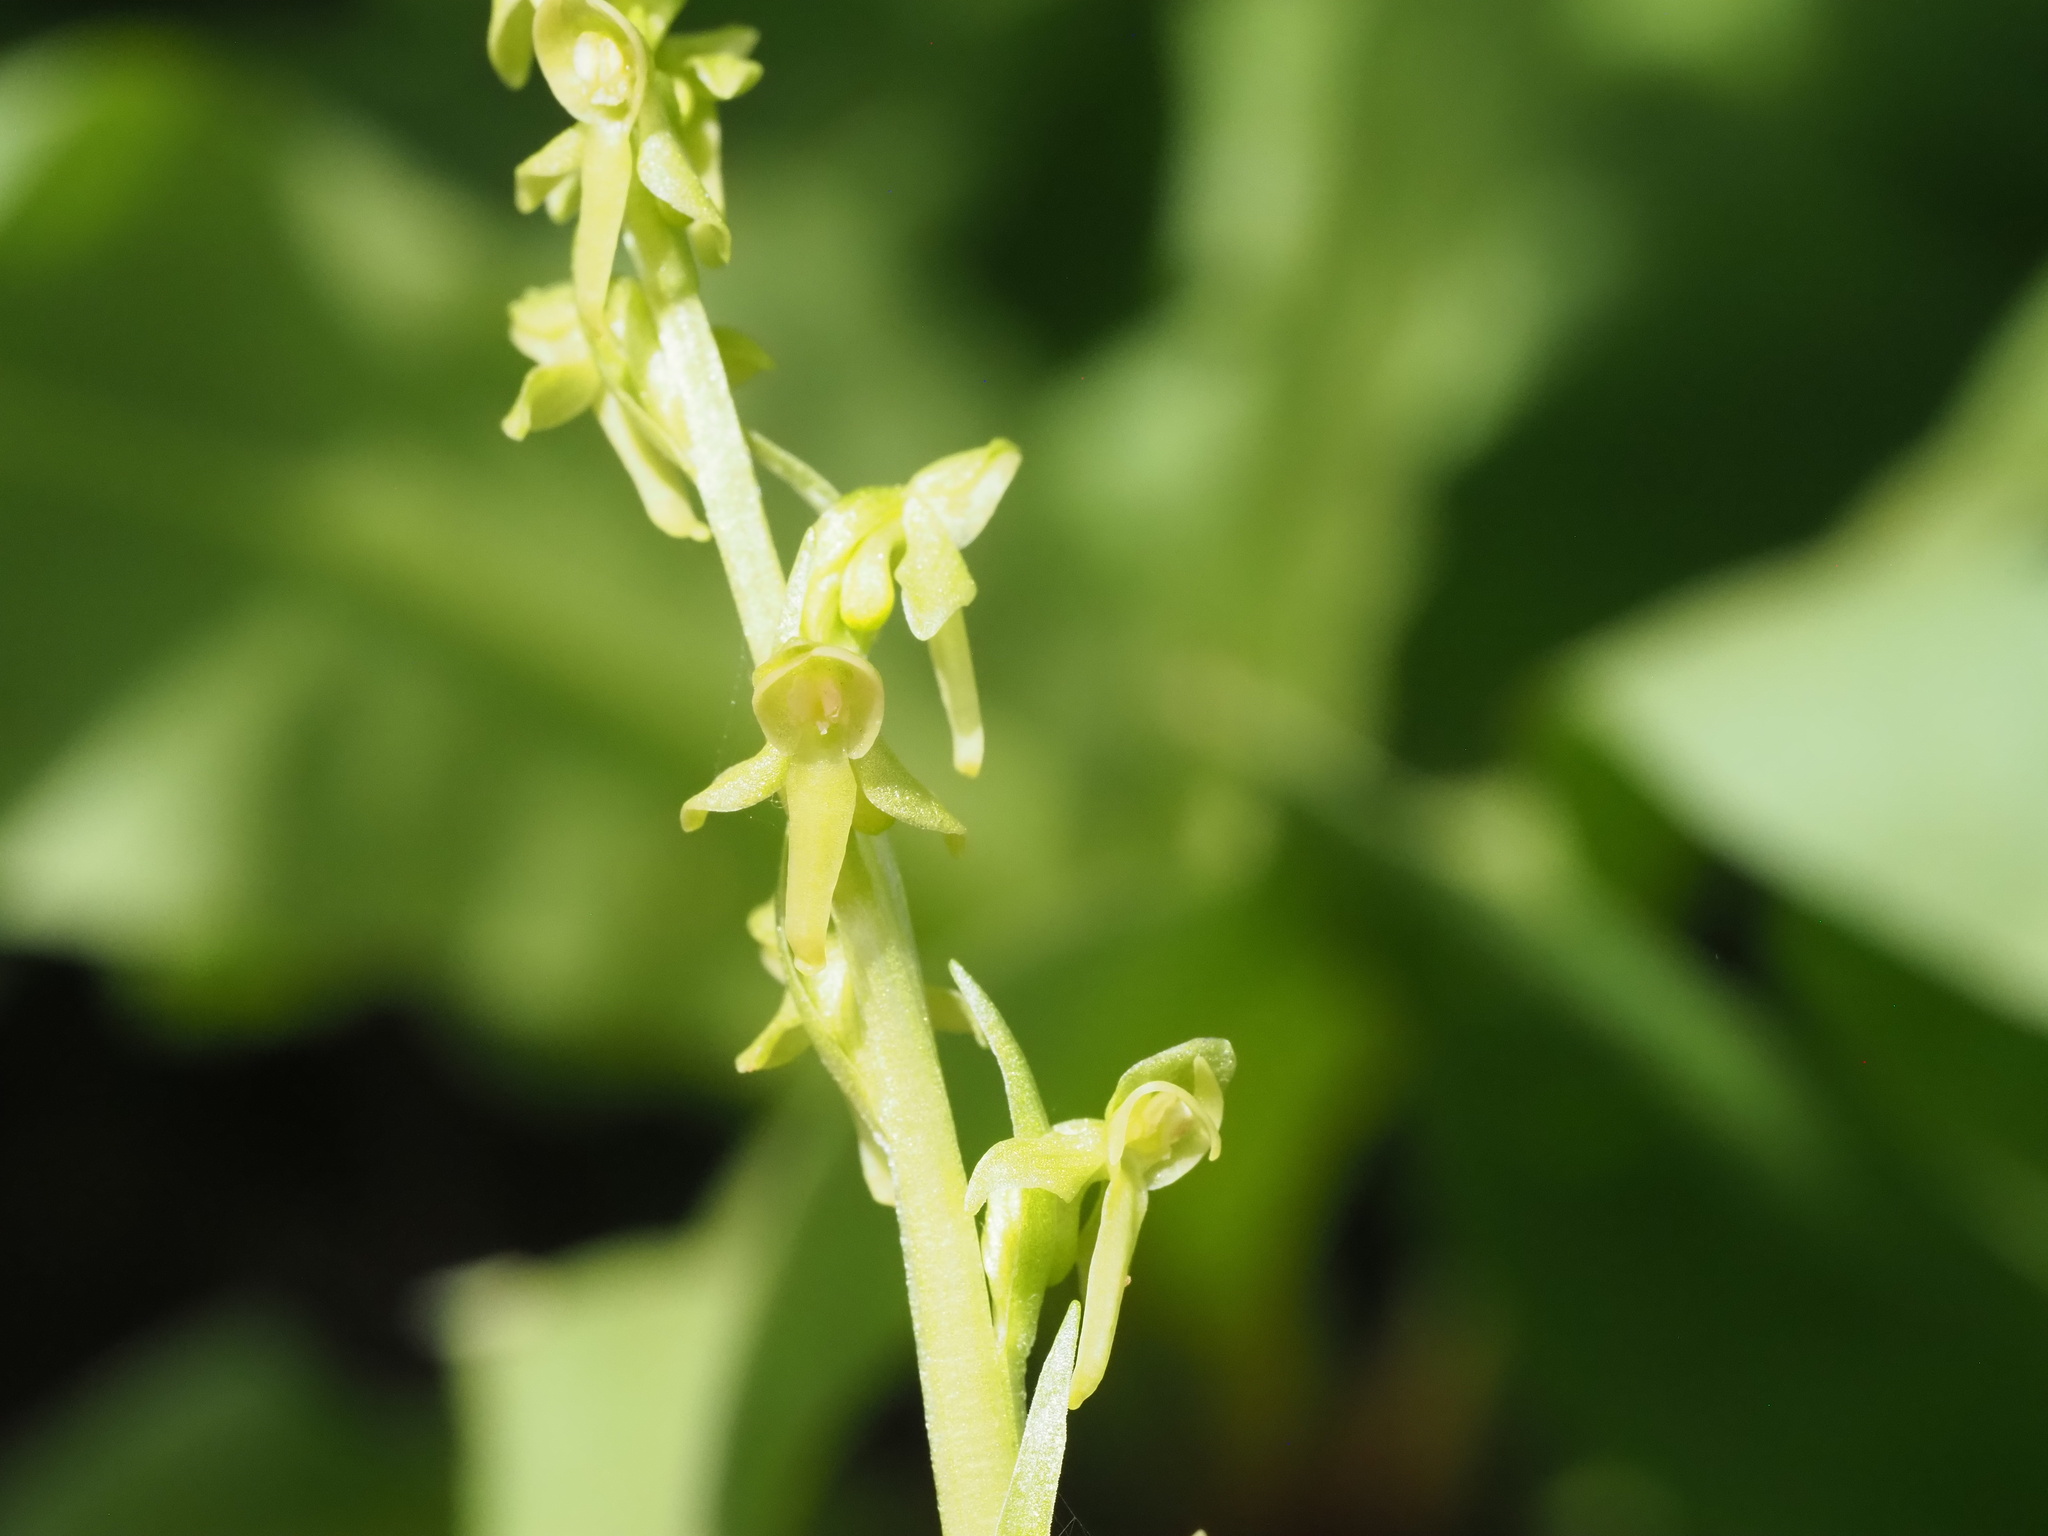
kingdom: Plantae
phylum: Tracheophyta
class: Liliopsida
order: Asparagales
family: Orchidaceae
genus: Platanthera
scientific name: Platanthera stricta
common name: Slender bog orchid
